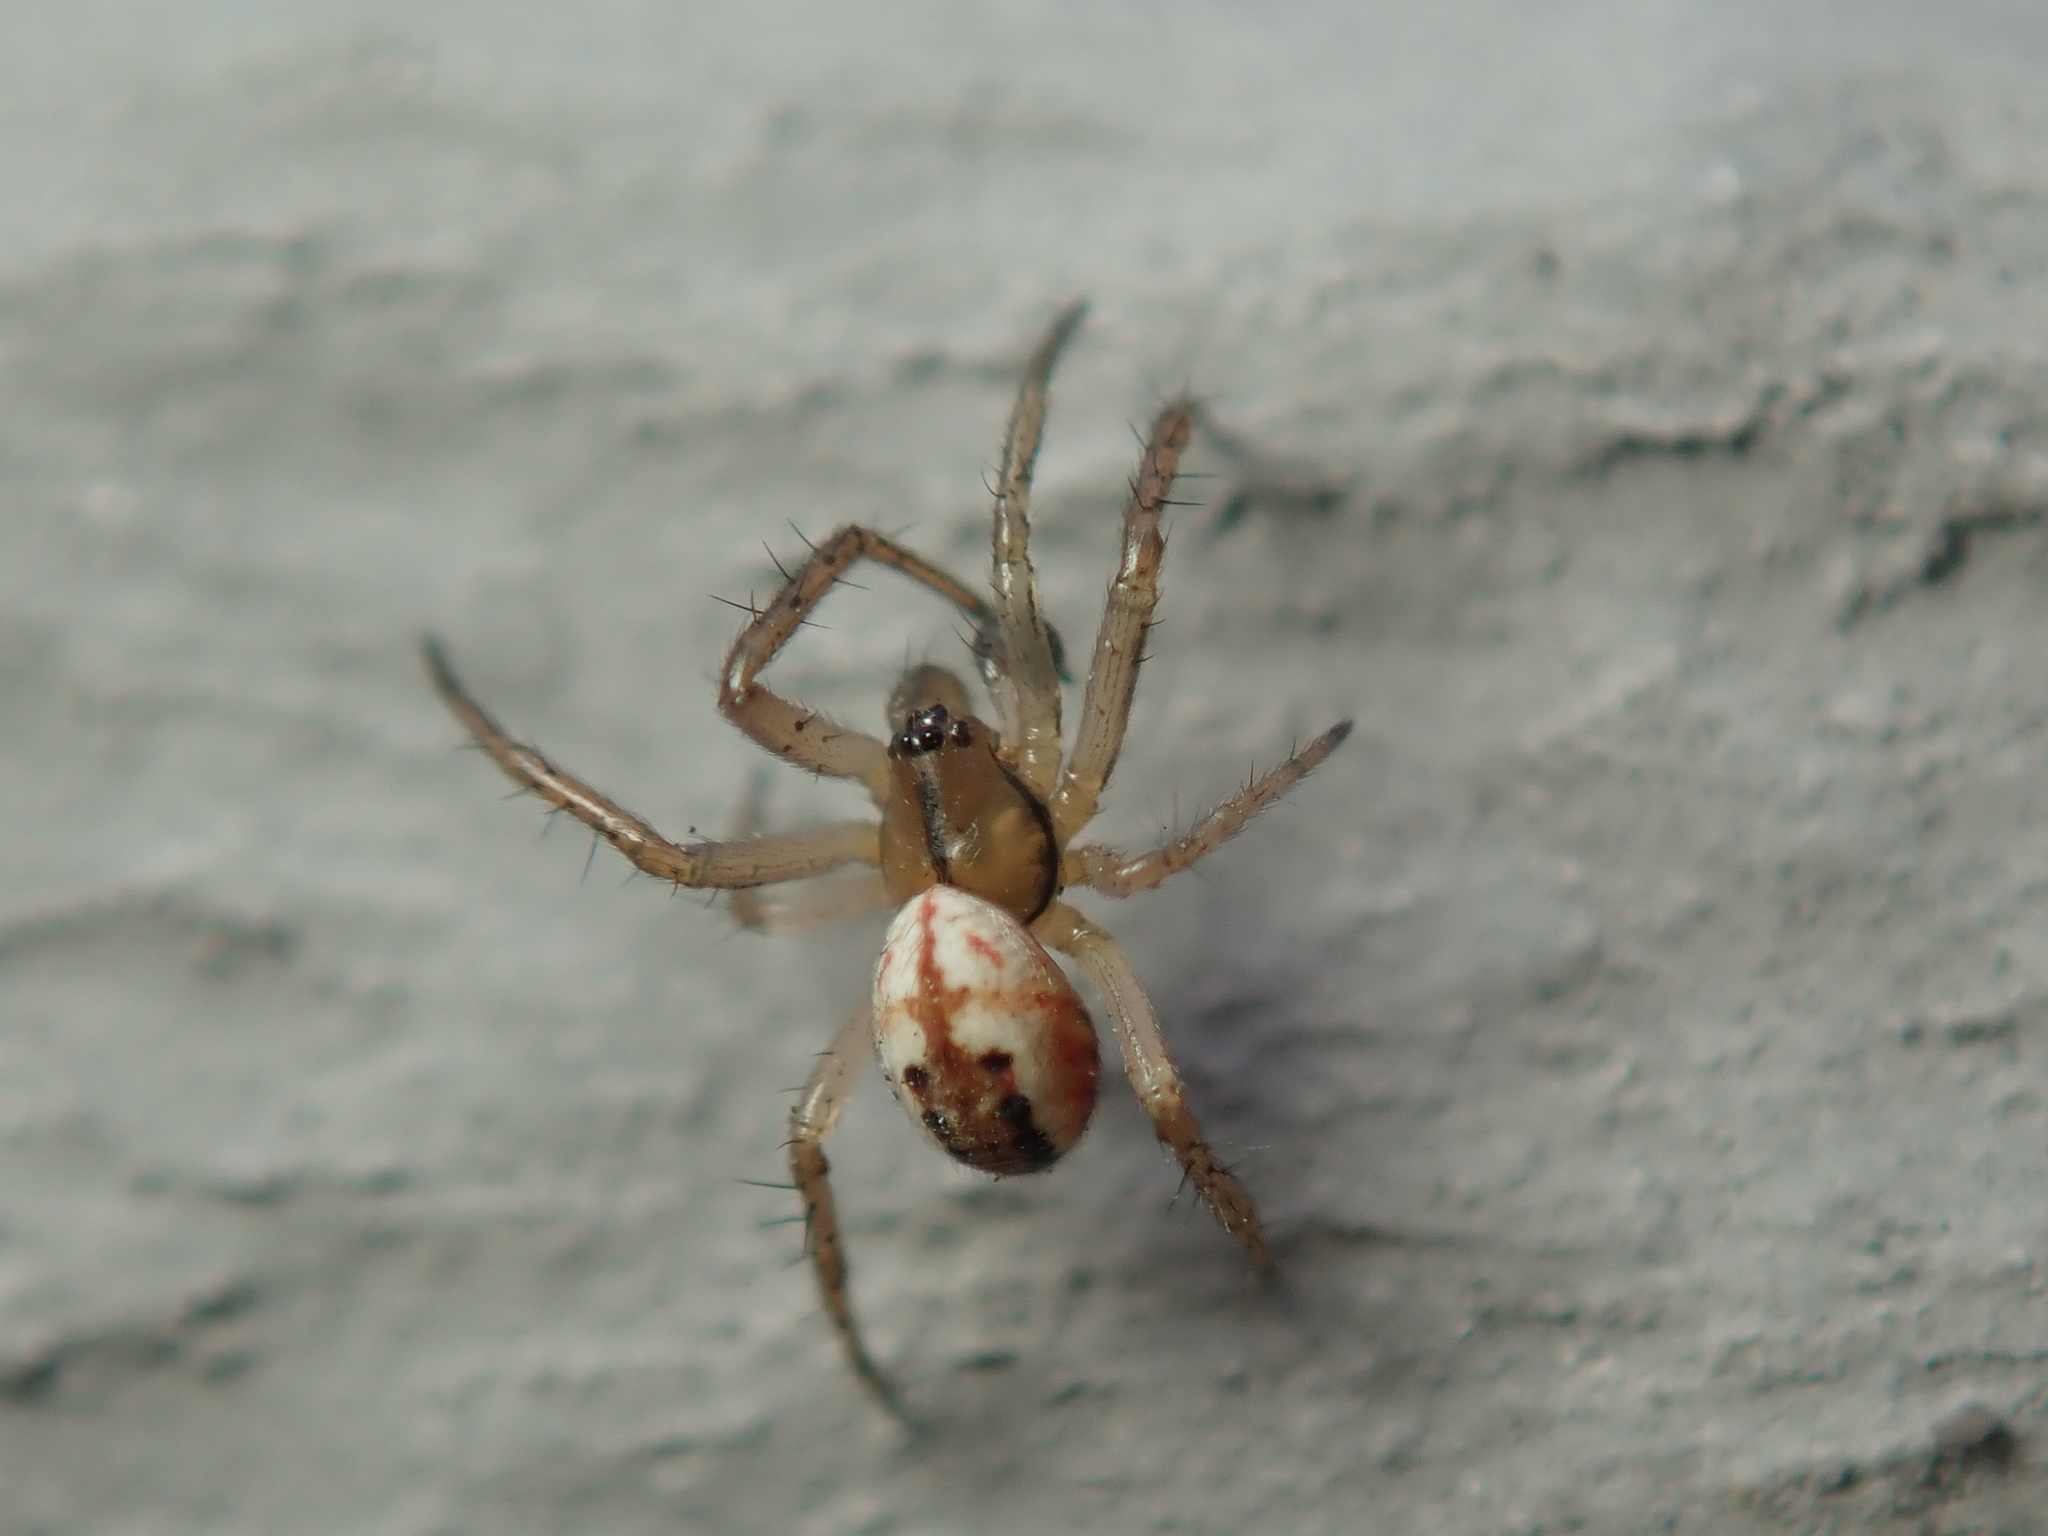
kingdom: Animalia
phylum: Arthropoda
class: Arachnida
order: Araneae
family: Araneidae
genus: Mangora
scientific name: Mangora acalypha
